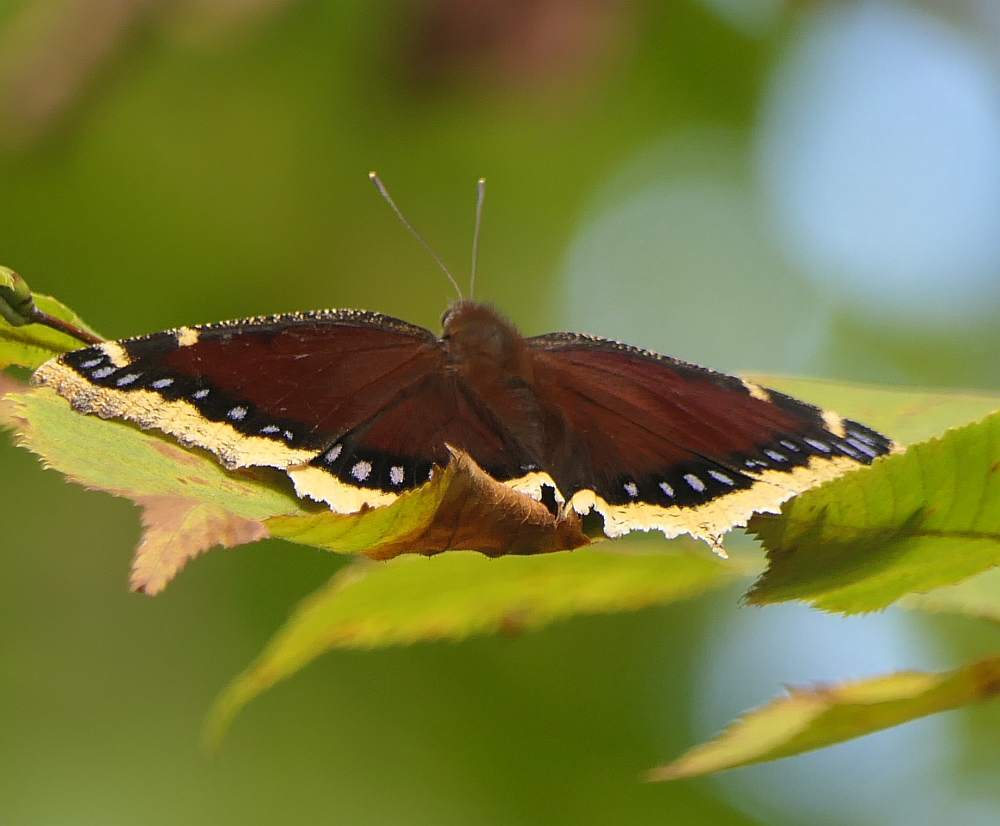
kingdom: Animalia
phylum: Arthropoda
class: Insecta
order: Lepidoptera
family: Nymphalidae
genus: Nymphalis
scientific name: Nymphalis antiopa
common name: Camberwell beauty
